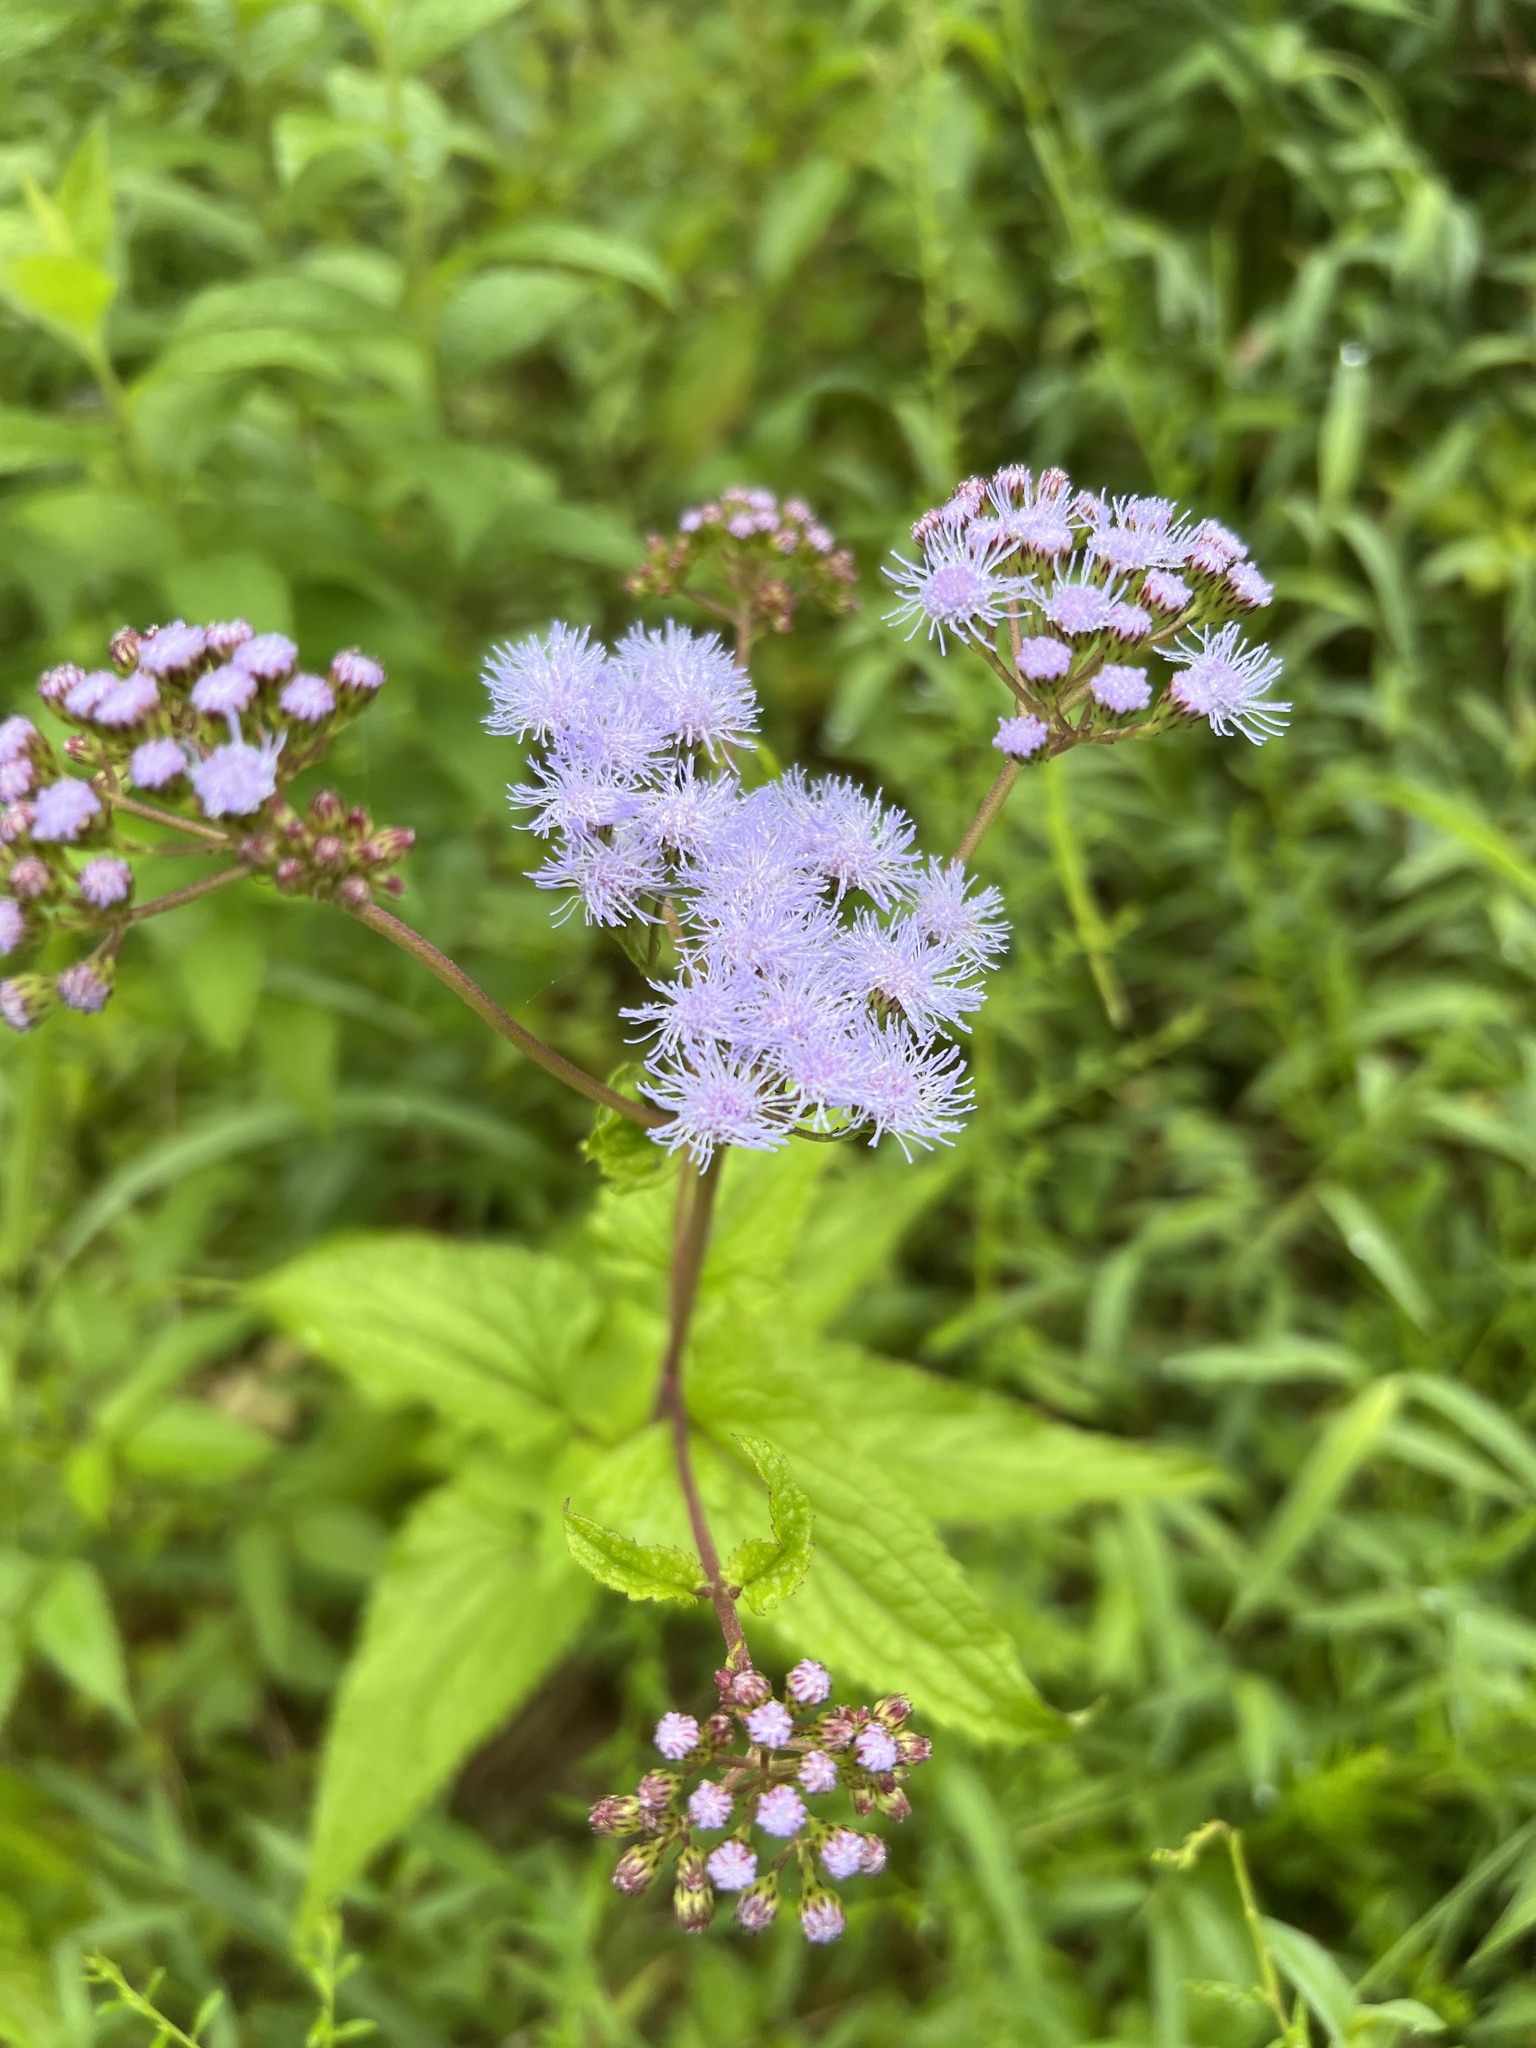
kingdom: Plantae
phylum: Tracheophyta
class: Magnoliopsida
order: Asterales
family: Asteraceae
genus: Conoclinium
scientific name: Conoclinium coelestinum
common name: Blue mistflower
